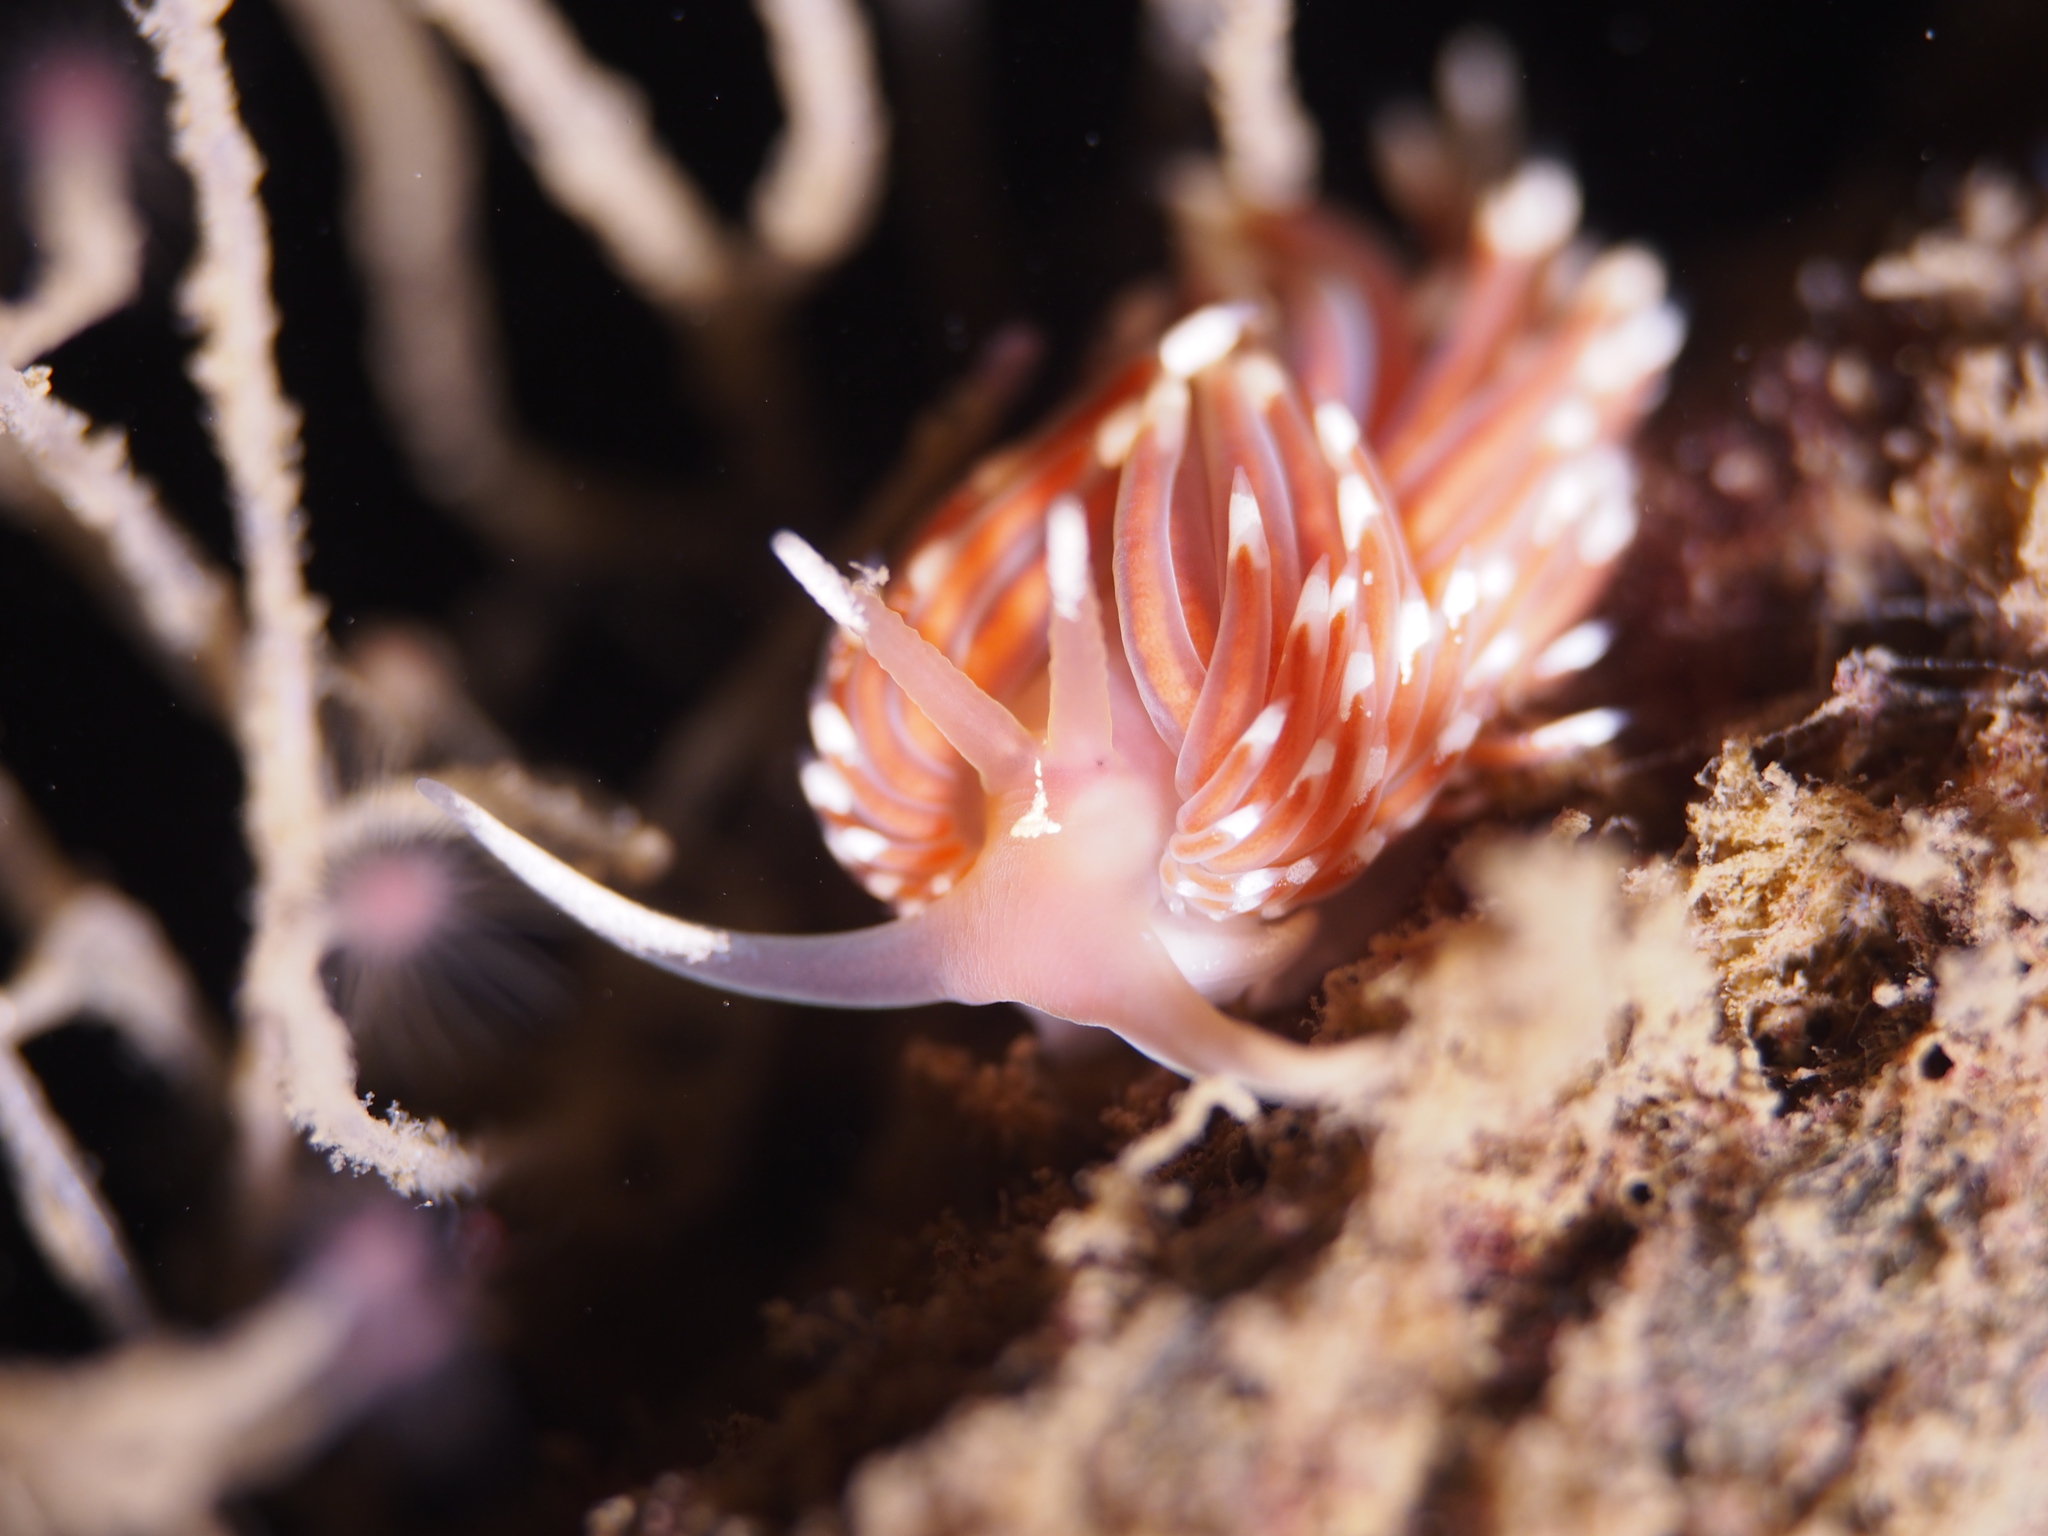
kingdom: Animalia
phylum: Mollusca
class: Gastropoda
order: Nudibranchia
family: Facelinidae
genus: Facelina
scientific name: Facelina bostoniensis
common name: Boston facelina
